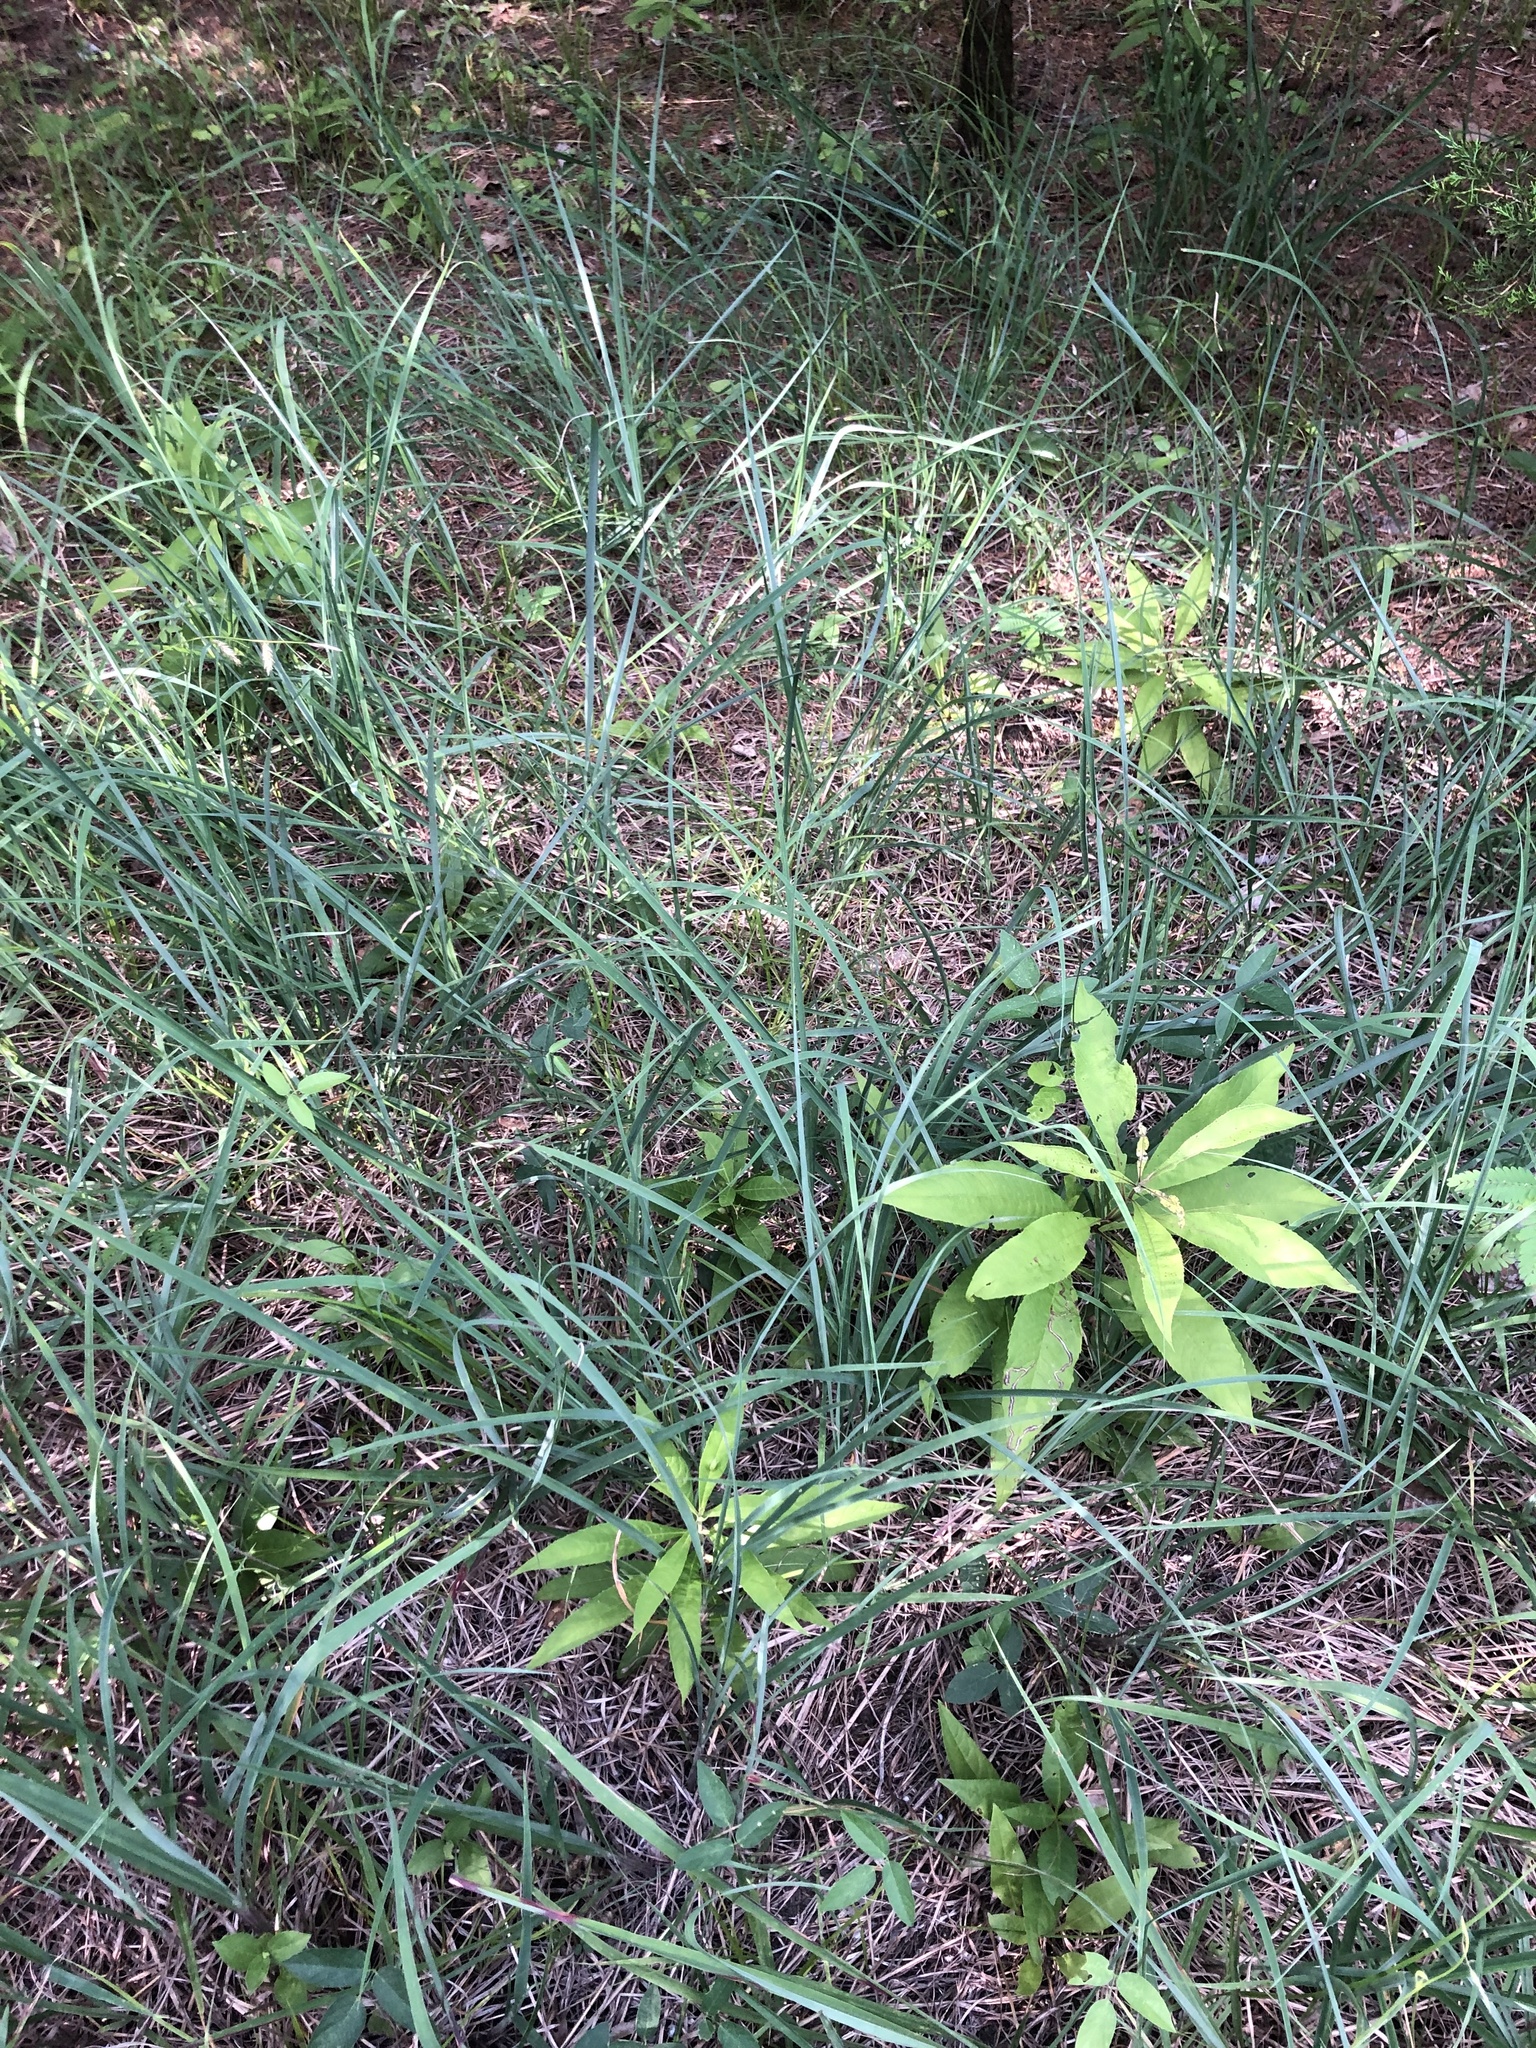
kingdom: Plantae
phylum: Tracheophyta
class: Liliopsida
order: Poales
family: Poaceae
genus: Andropogon
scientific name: Andropogon gerardi
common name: Big bluestem
